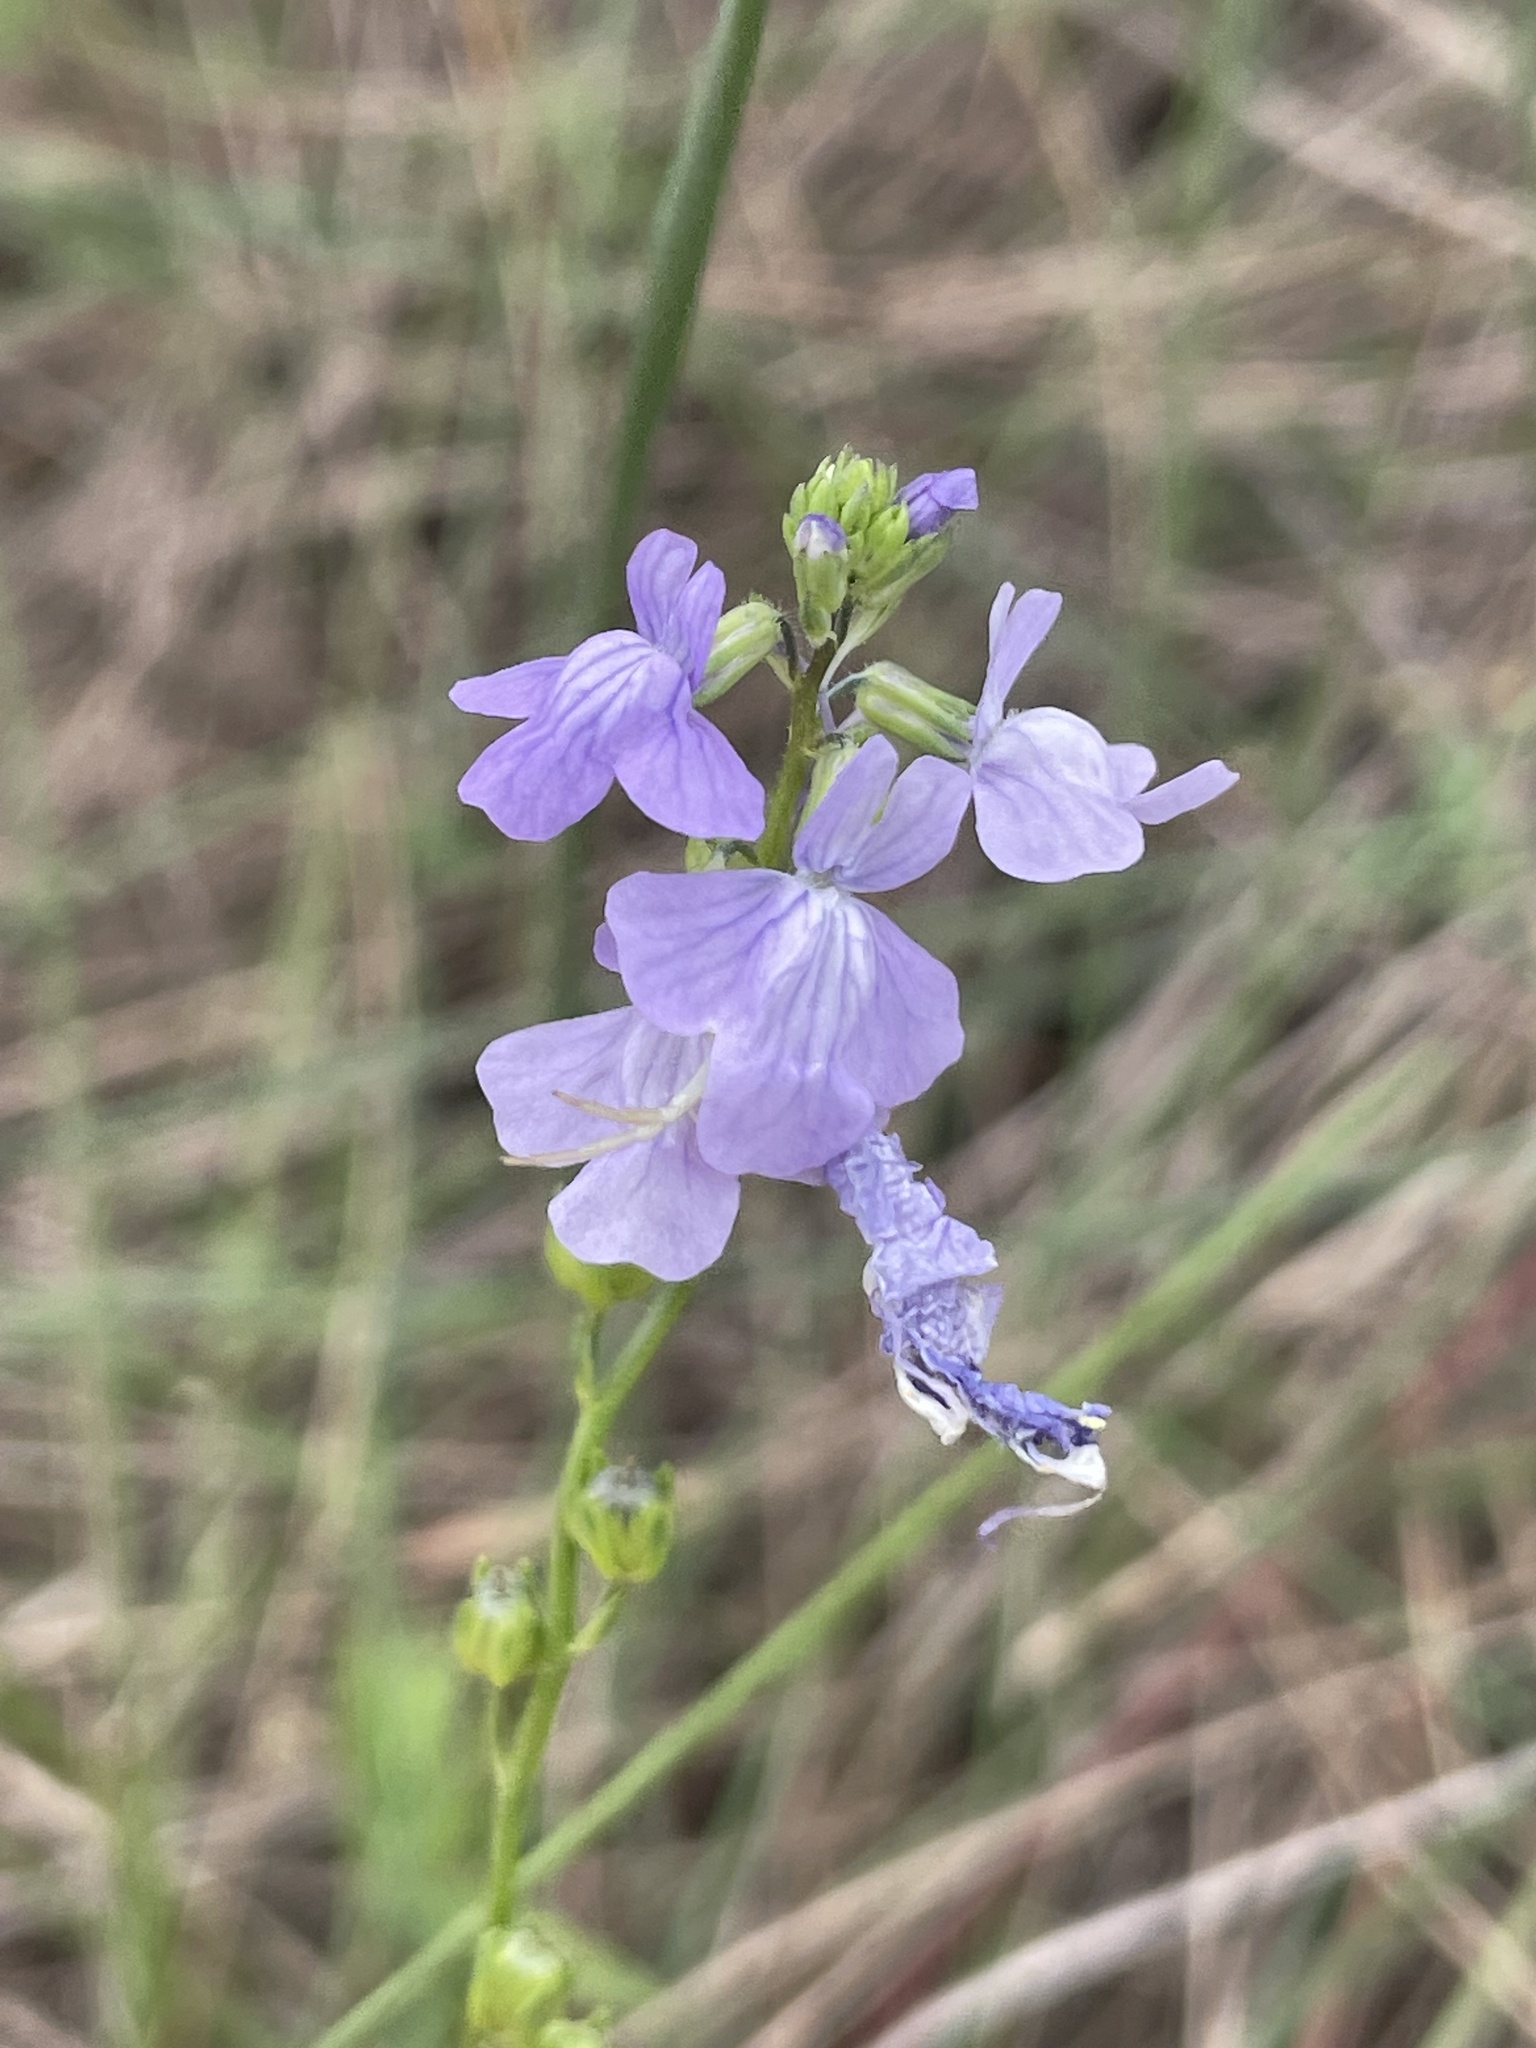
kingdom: Plantae
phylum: Tracheophyta
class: Magnoliopsida
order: Lamiales
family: Plantaginaceae
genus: Nuttallanthus
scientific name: Nuttallanthus texanus
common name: Texas toadflax
